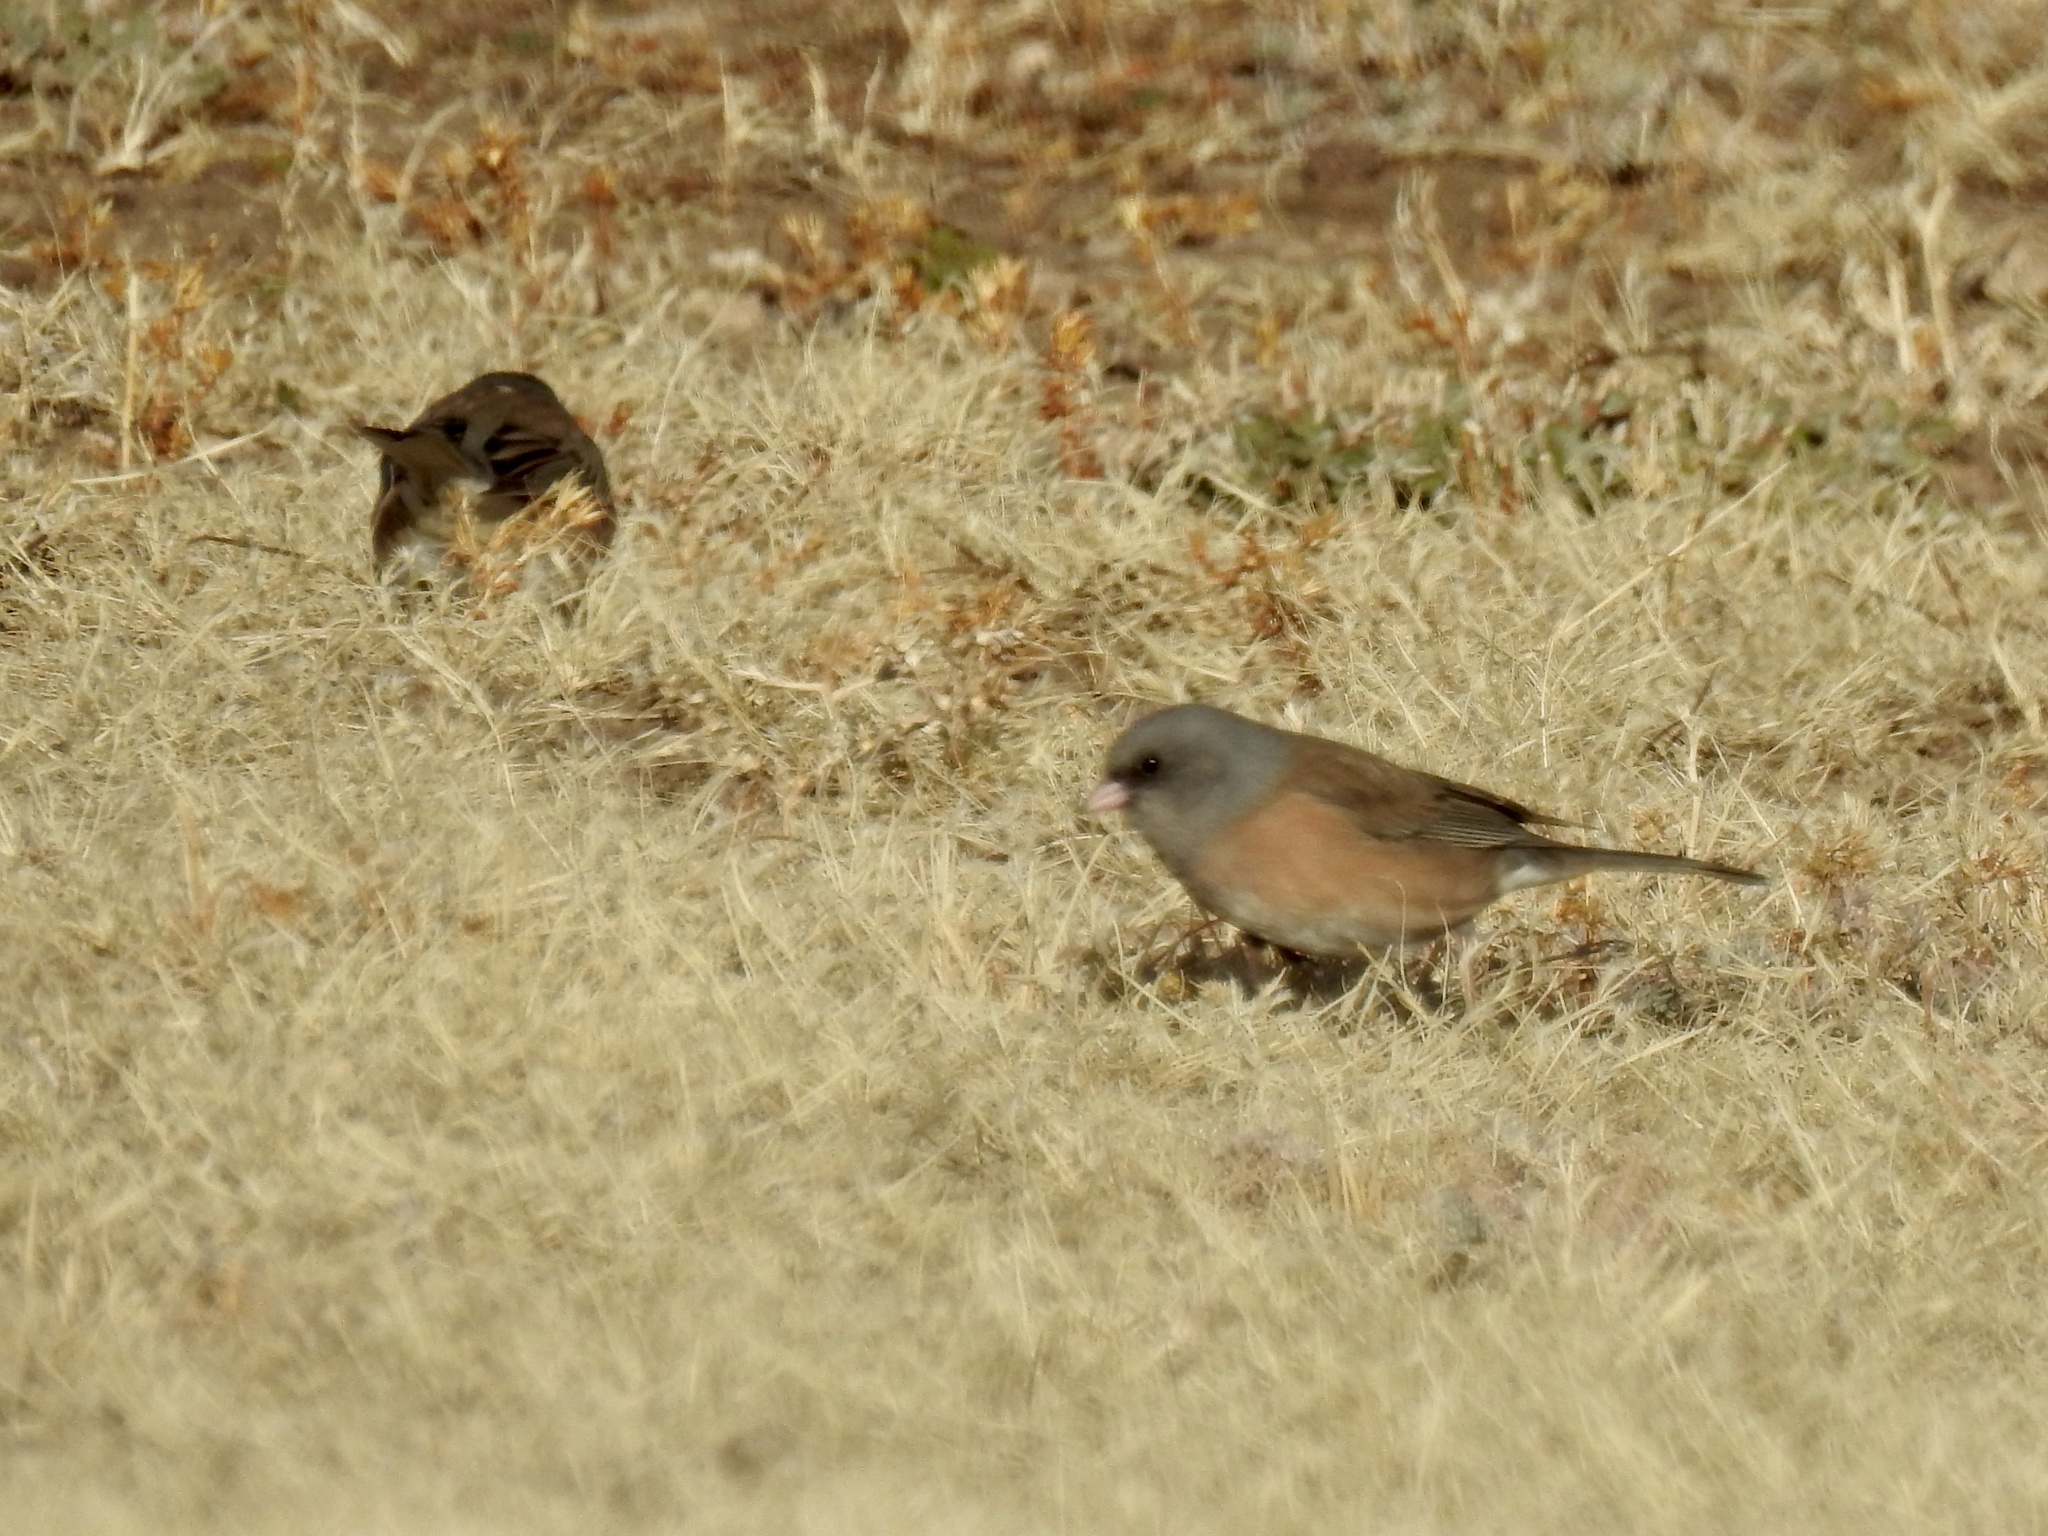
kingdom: Animalia
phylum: Chordata
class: Aves
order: Passeriformes
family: Passerellidae
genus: Junco
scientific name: Junco hyemalis
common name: Dark-eyed junco
